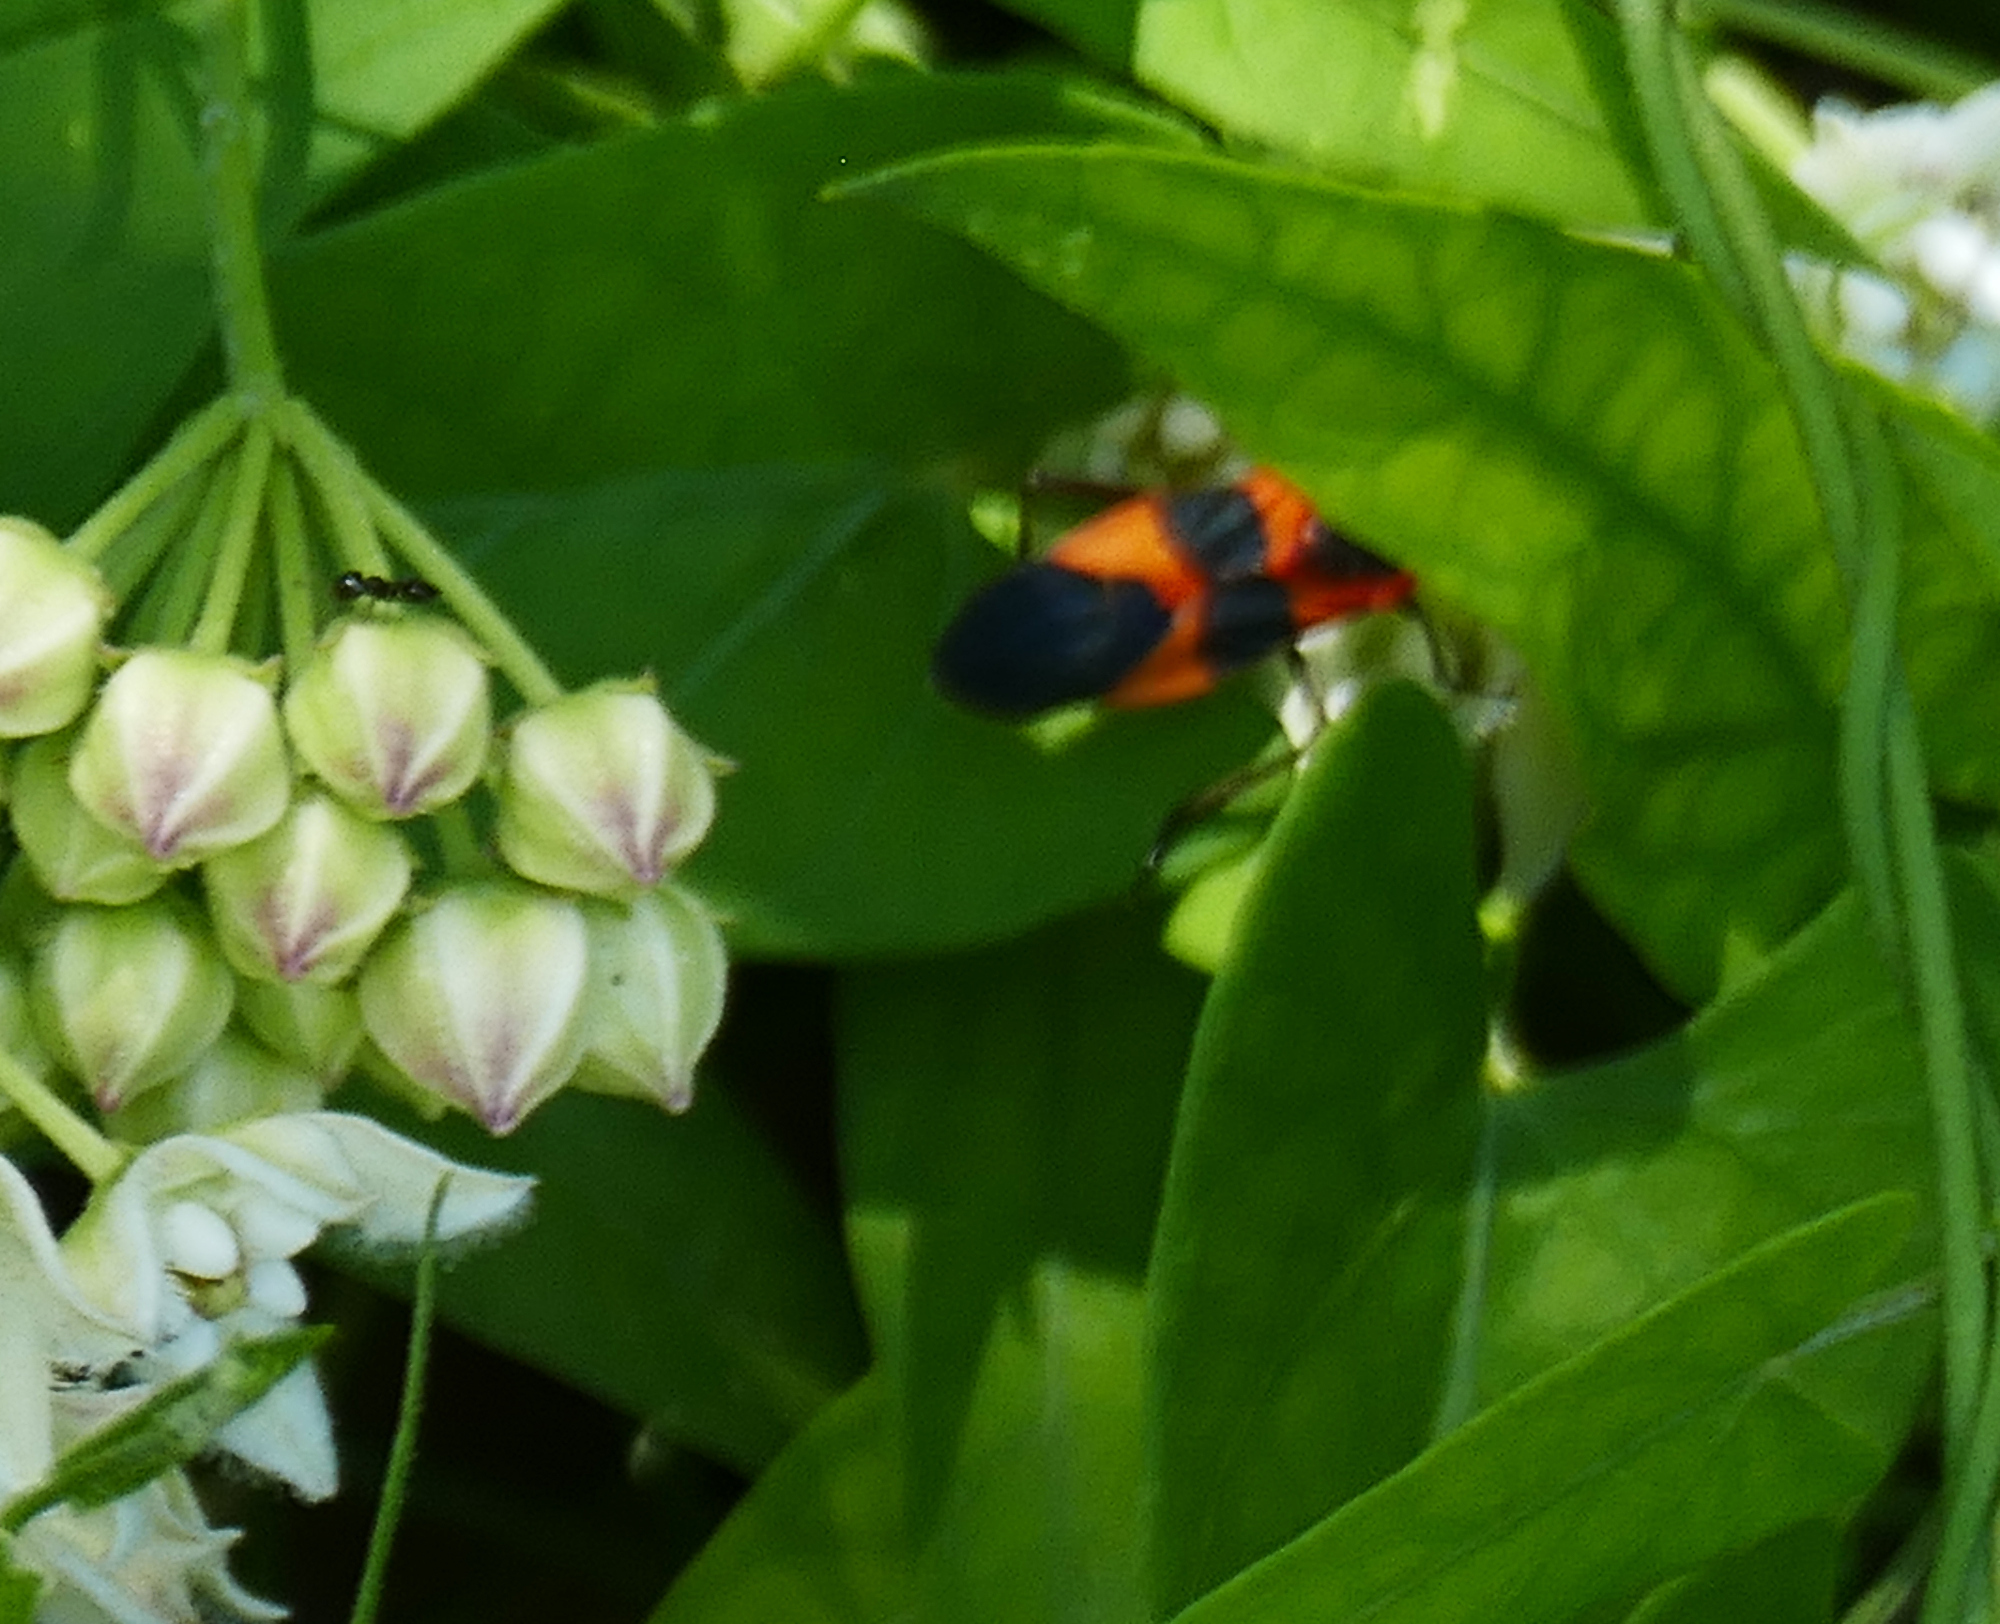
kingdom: Animalia
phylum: Arthropoda
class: Insecta
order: Hemiptera
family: Lygaeidae
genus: Oncopeltus
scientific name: Oncopeltus fasciatus
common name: Large milkweed bug
